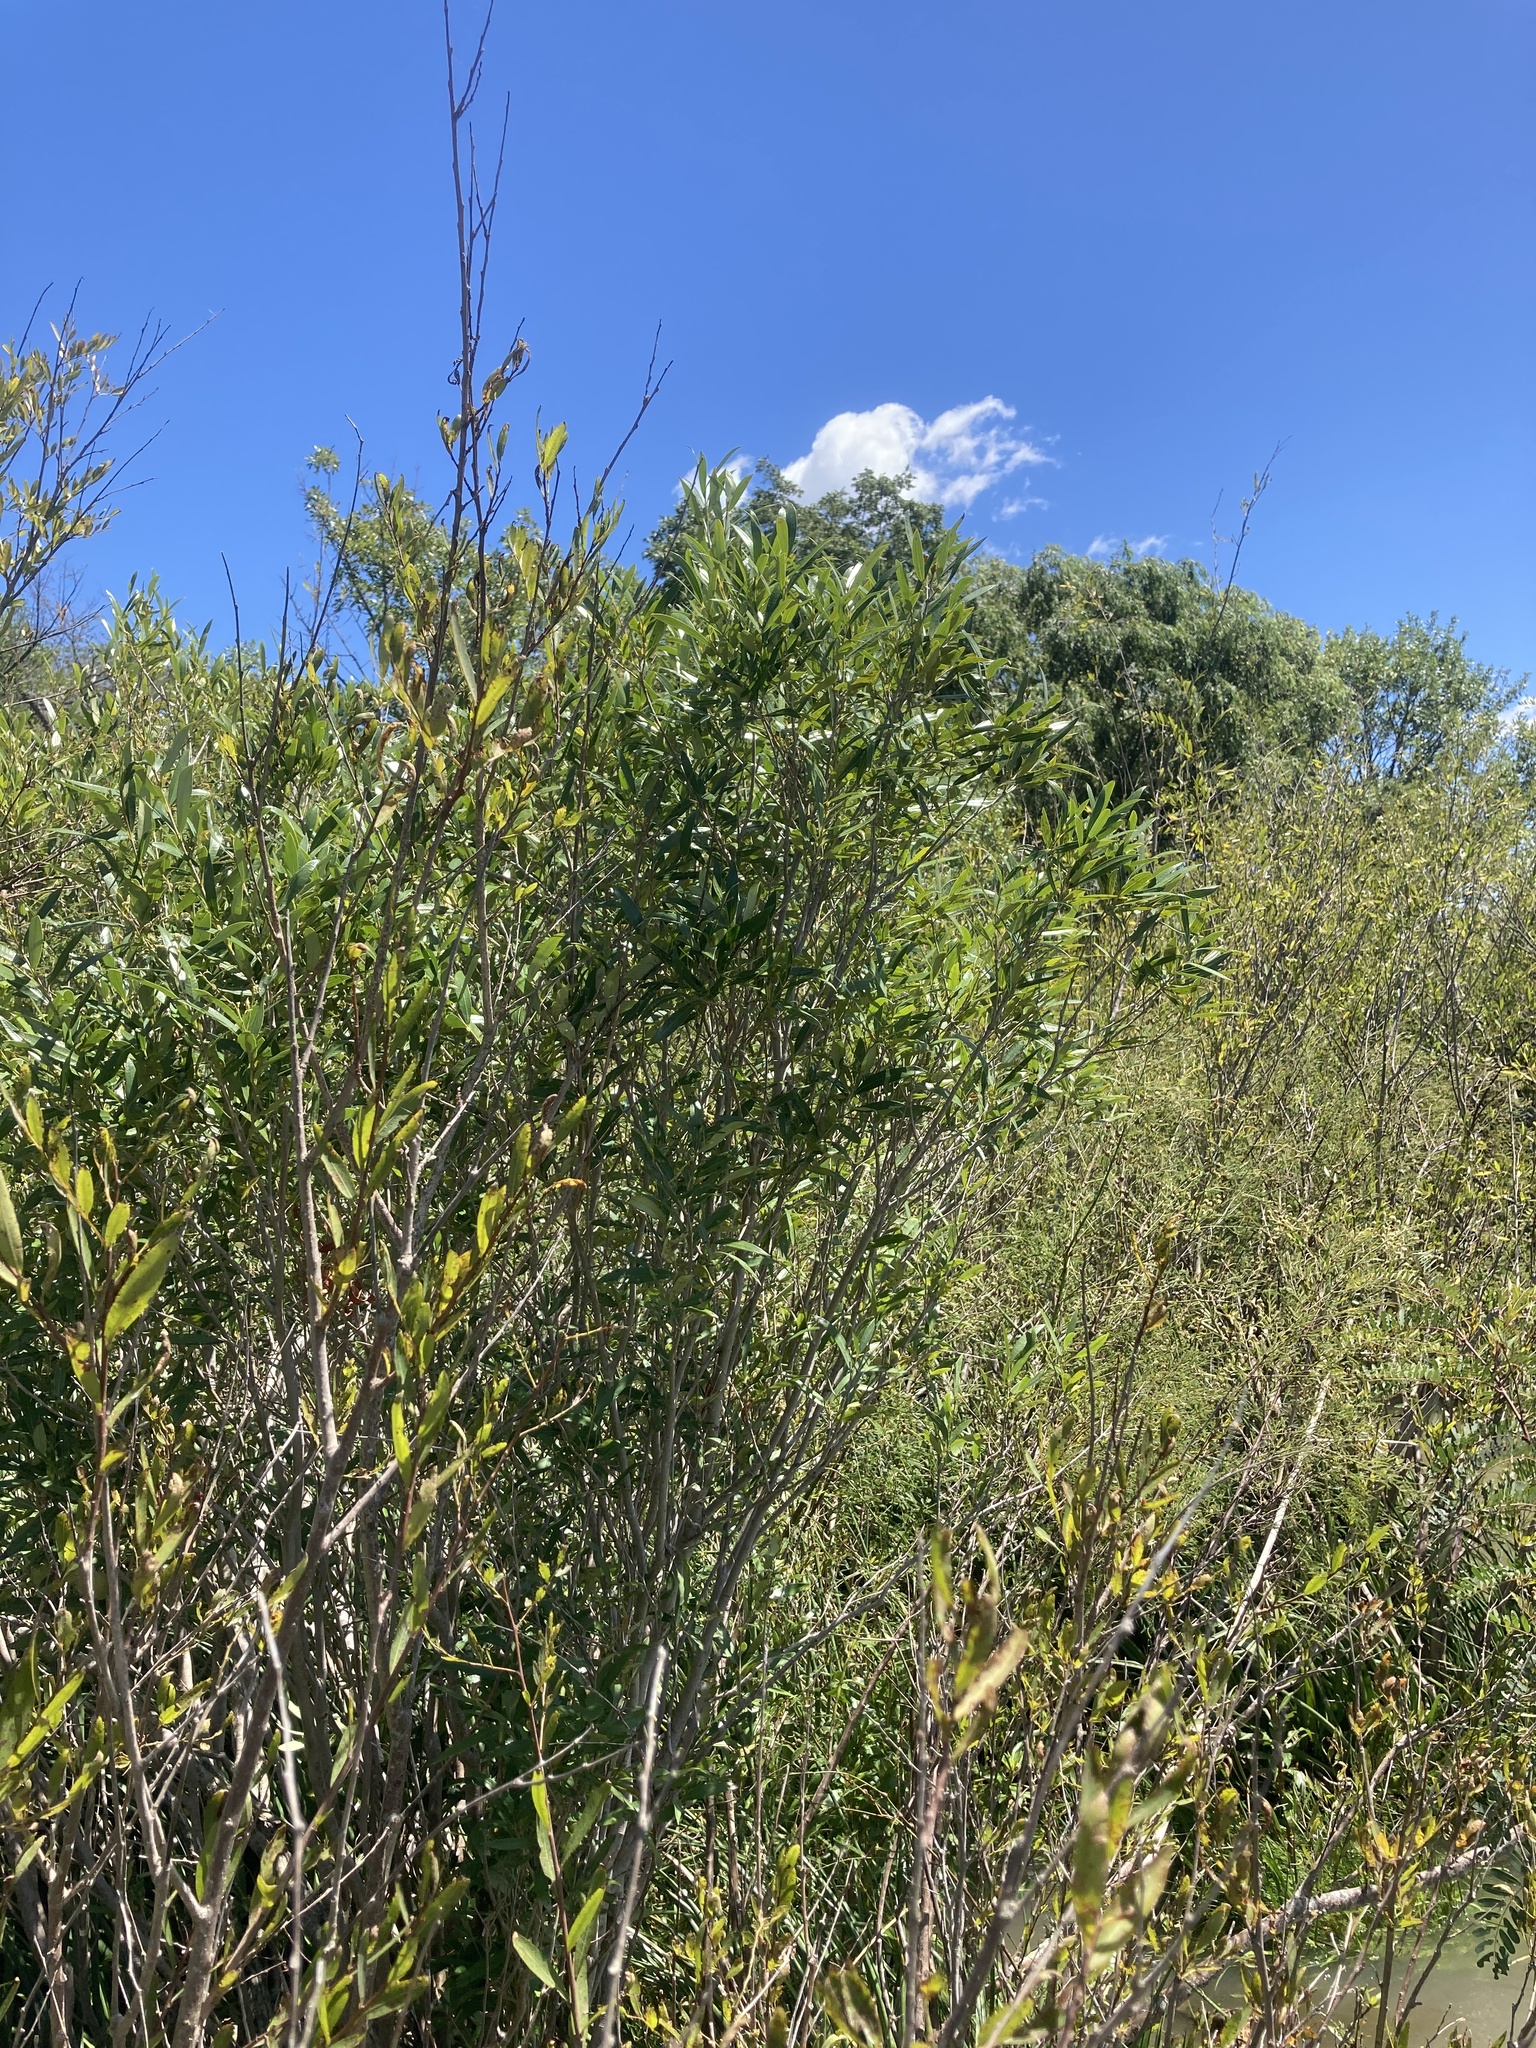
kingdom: Plantae
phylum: Tracheophyta
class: Magnoliopsida
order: Myrtales
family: Myrtaceae
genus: Myrceugenia
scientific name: Myrceugenia glaucescens
